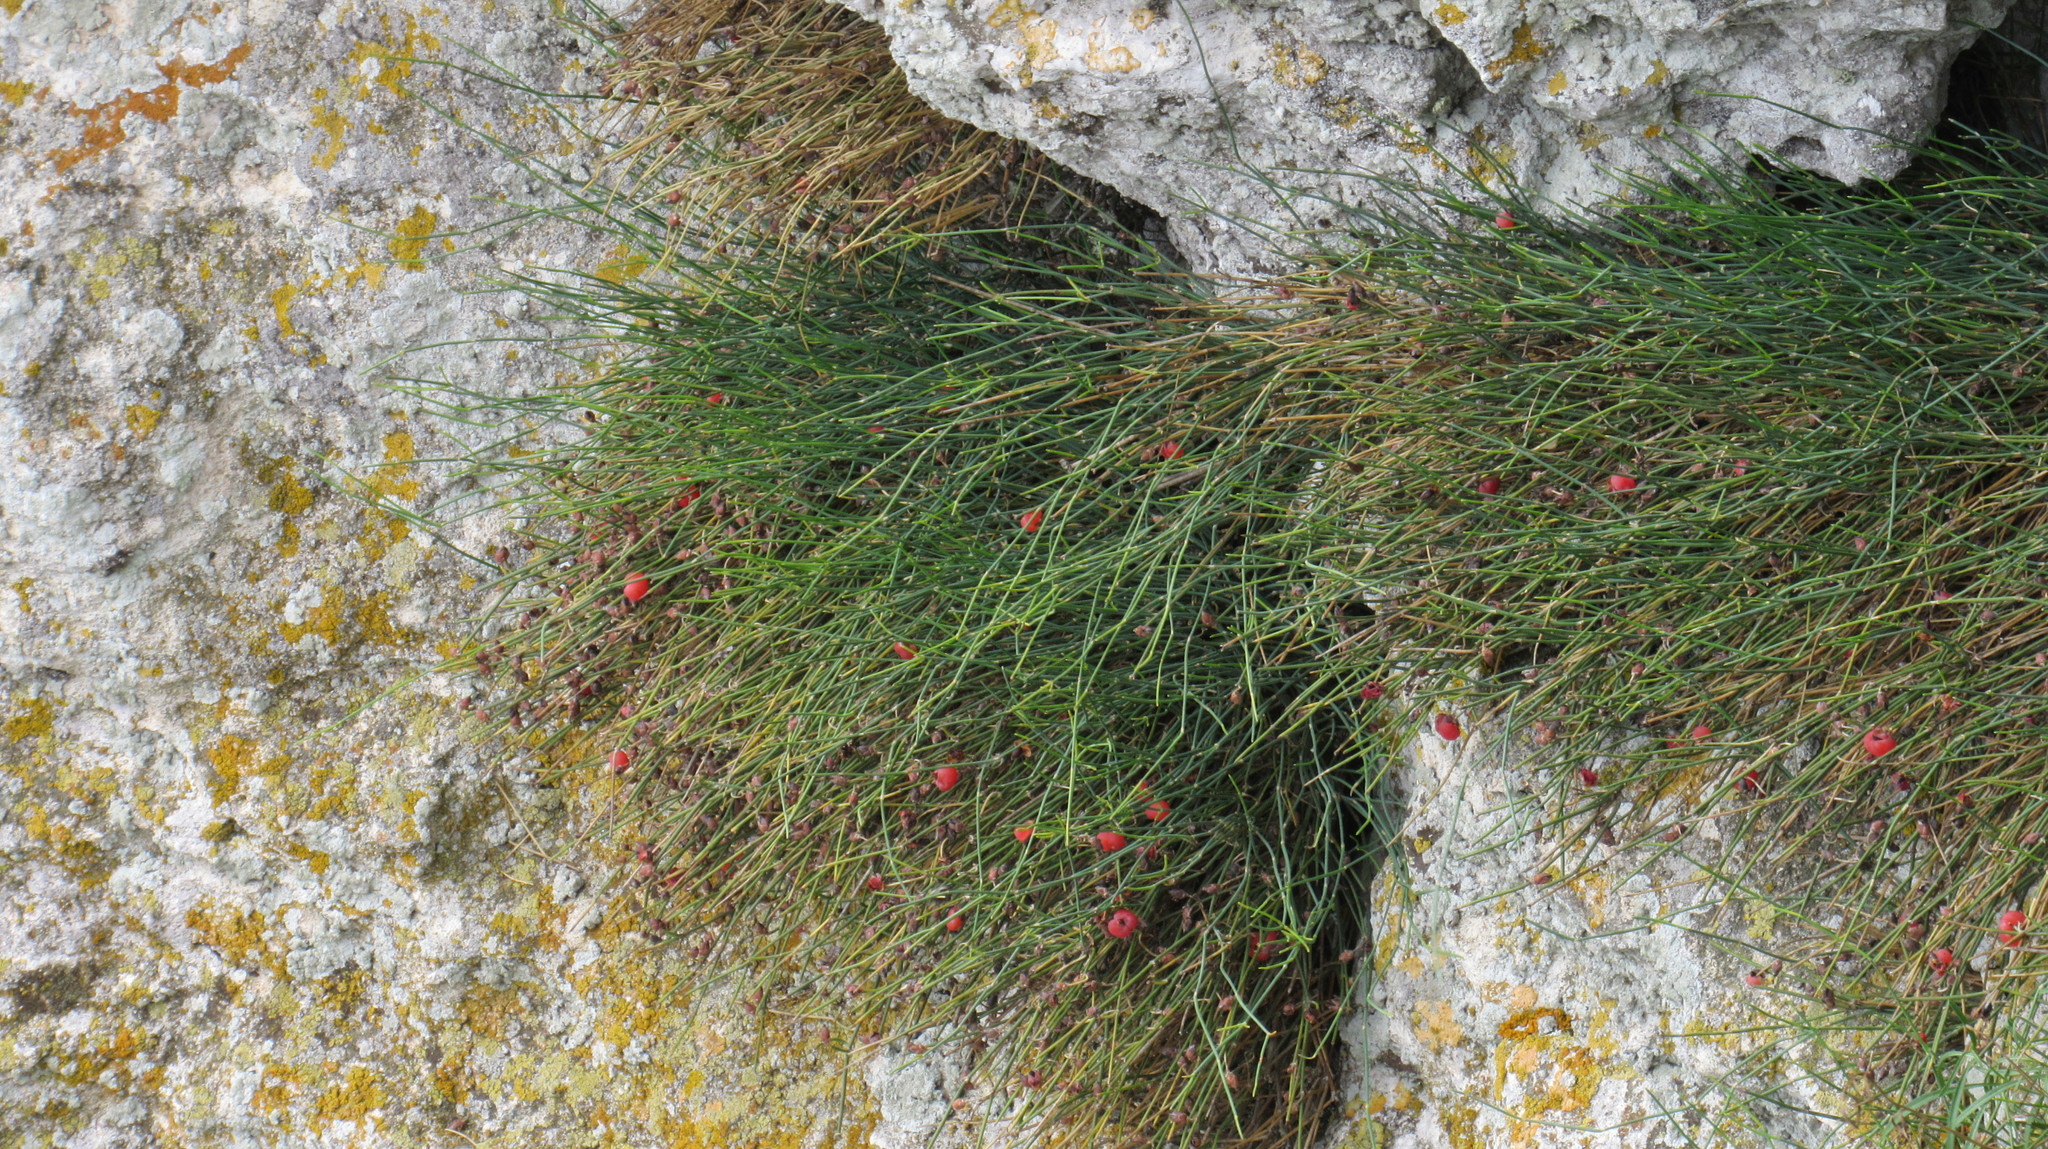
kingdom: Plantae
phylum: Tracheophyta
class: Gnetopsida
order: Ephedrales
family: Ephedraceae
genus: Ephedra
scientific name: Ephedra distachya
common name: Sea grape
